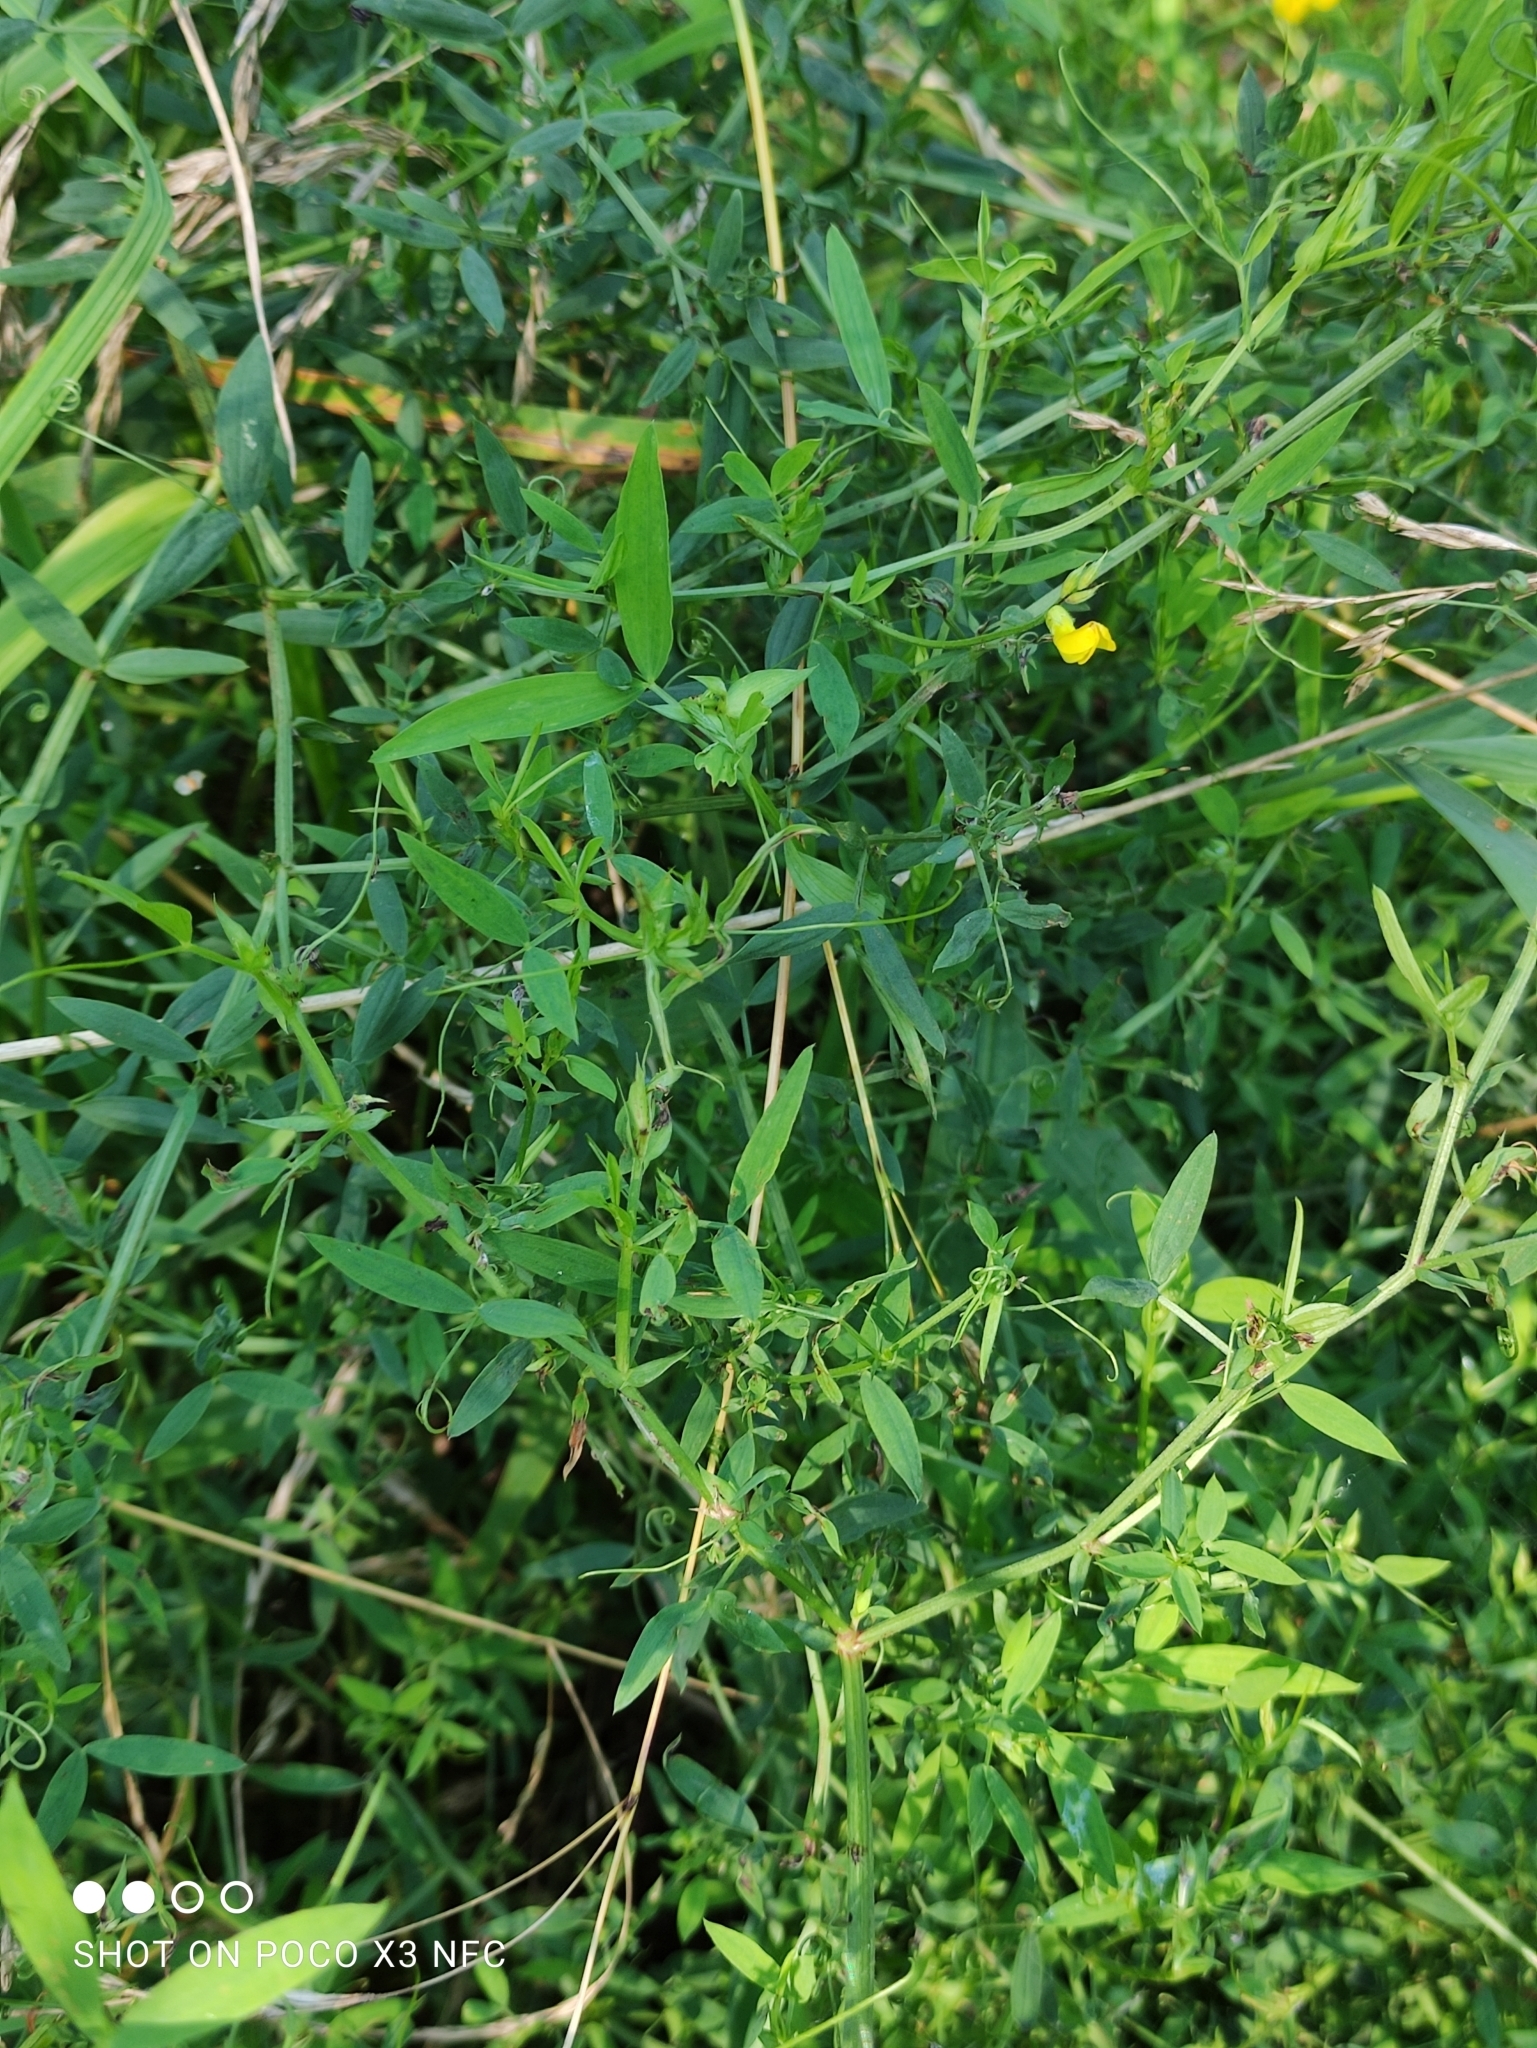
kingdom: Plantae
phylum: Tracheophyta
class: Magnoliopsida
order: Fabales
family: Fabaceae
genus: Lathyrus
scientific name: Lathyrus pratensis
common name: Meadow vetchling
